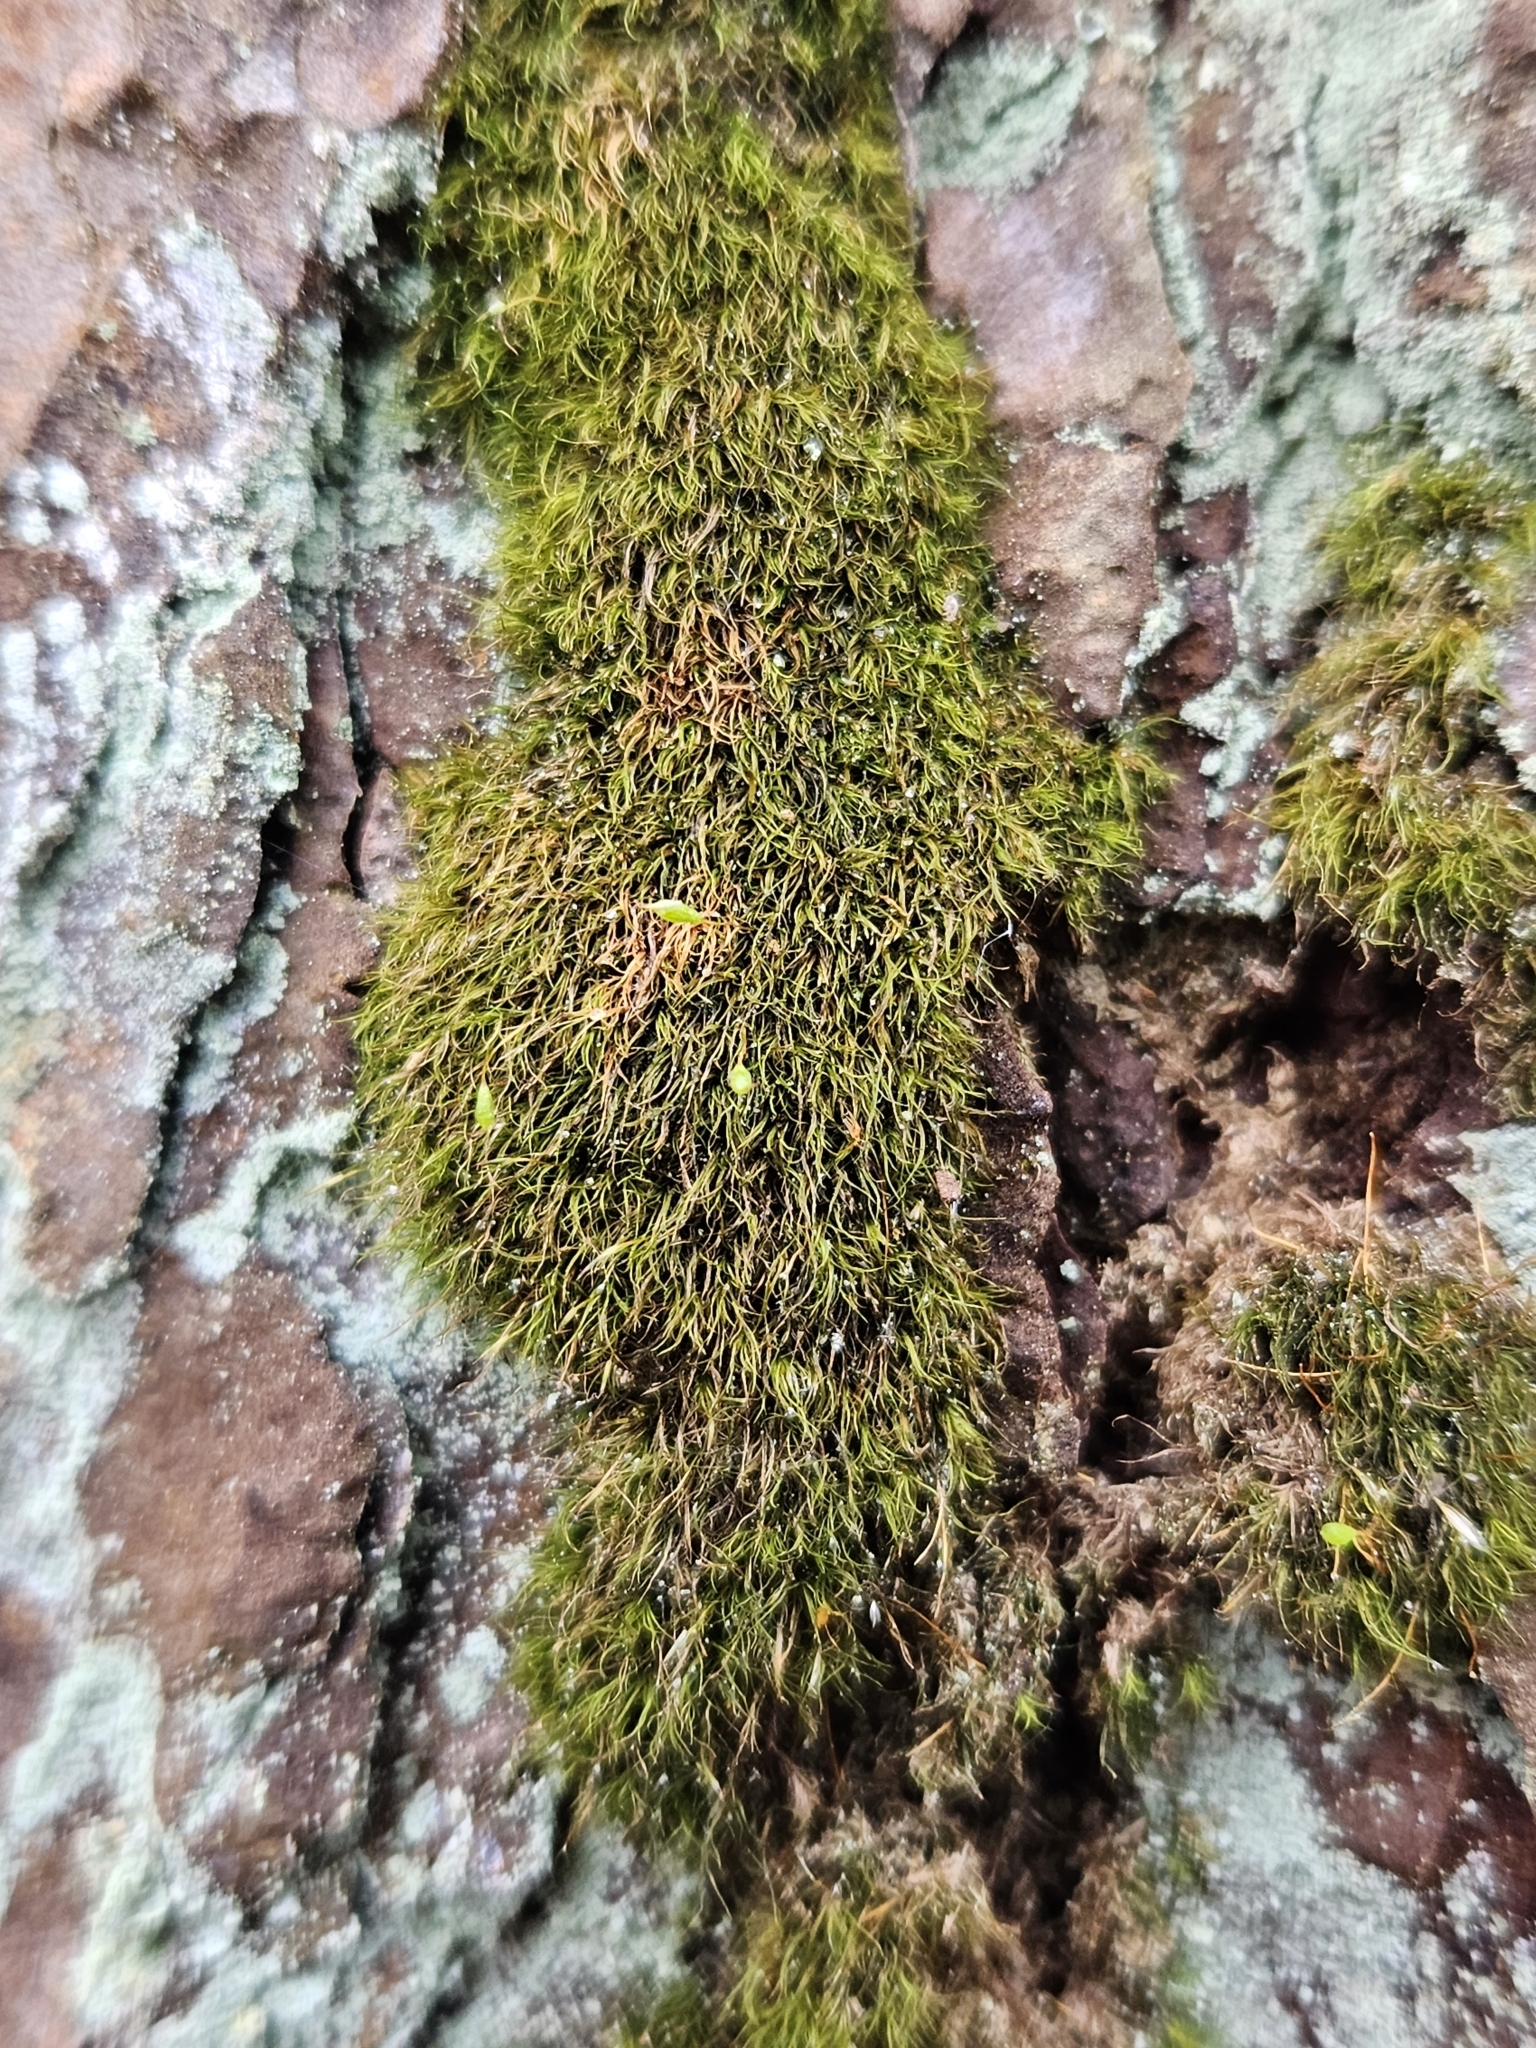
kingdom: Plantae
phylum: Bryophyta
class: Bryopsida
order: Orthodontiales
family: Orthodontiaceae
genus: Orthodontium
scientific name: Orthodontium lineare
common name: Cape thread-moss
